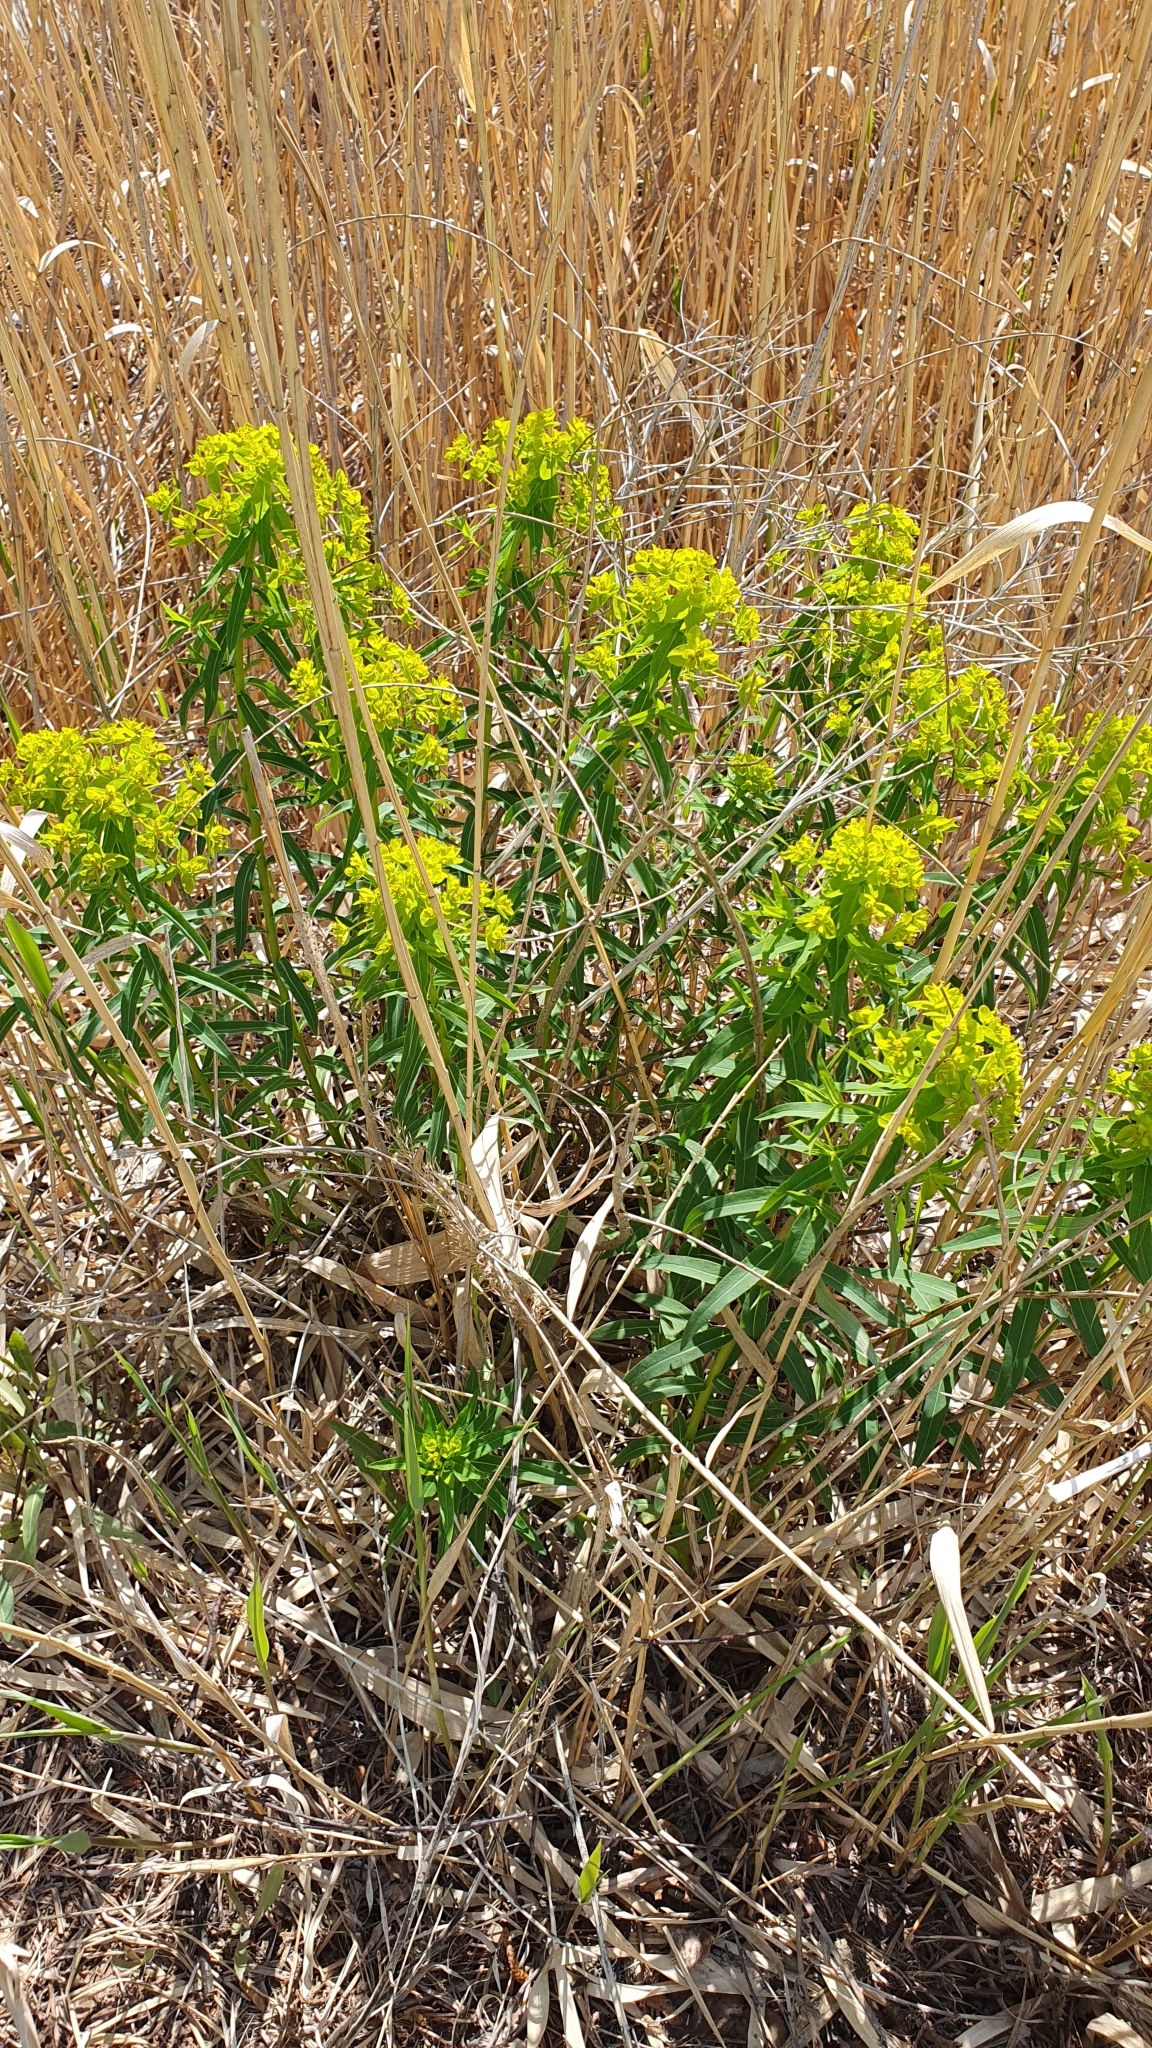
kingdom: Plantae
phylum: Tracheophyta
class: Magnoliopsida
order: Malpighiales
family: Euphorbiaceae
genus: Euphorbia
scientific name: Euphorbia palustris
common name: Marsh spurge
